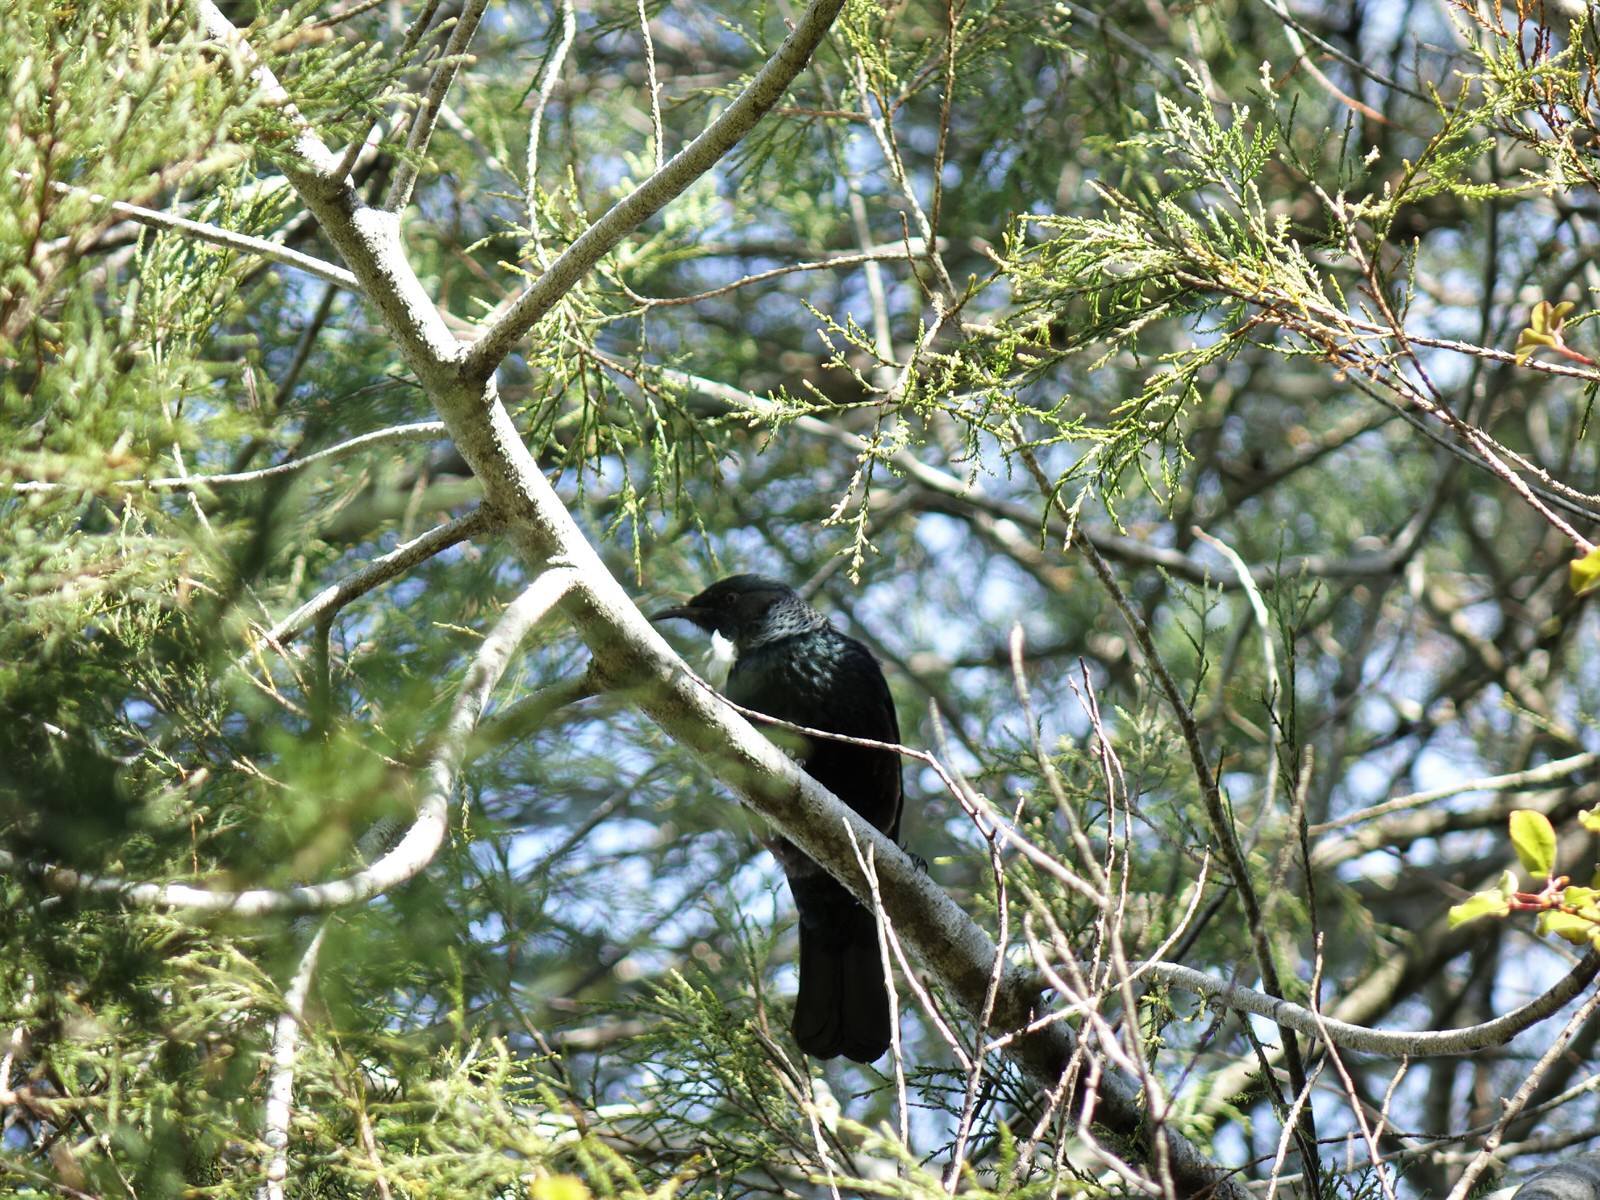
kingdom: Animalia
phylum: Chordata
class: Aves
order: Passeriformes
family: Meliphagidae
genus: Prosthemadera
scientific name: Prosthemadera novaeseelandiae
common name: Tui
